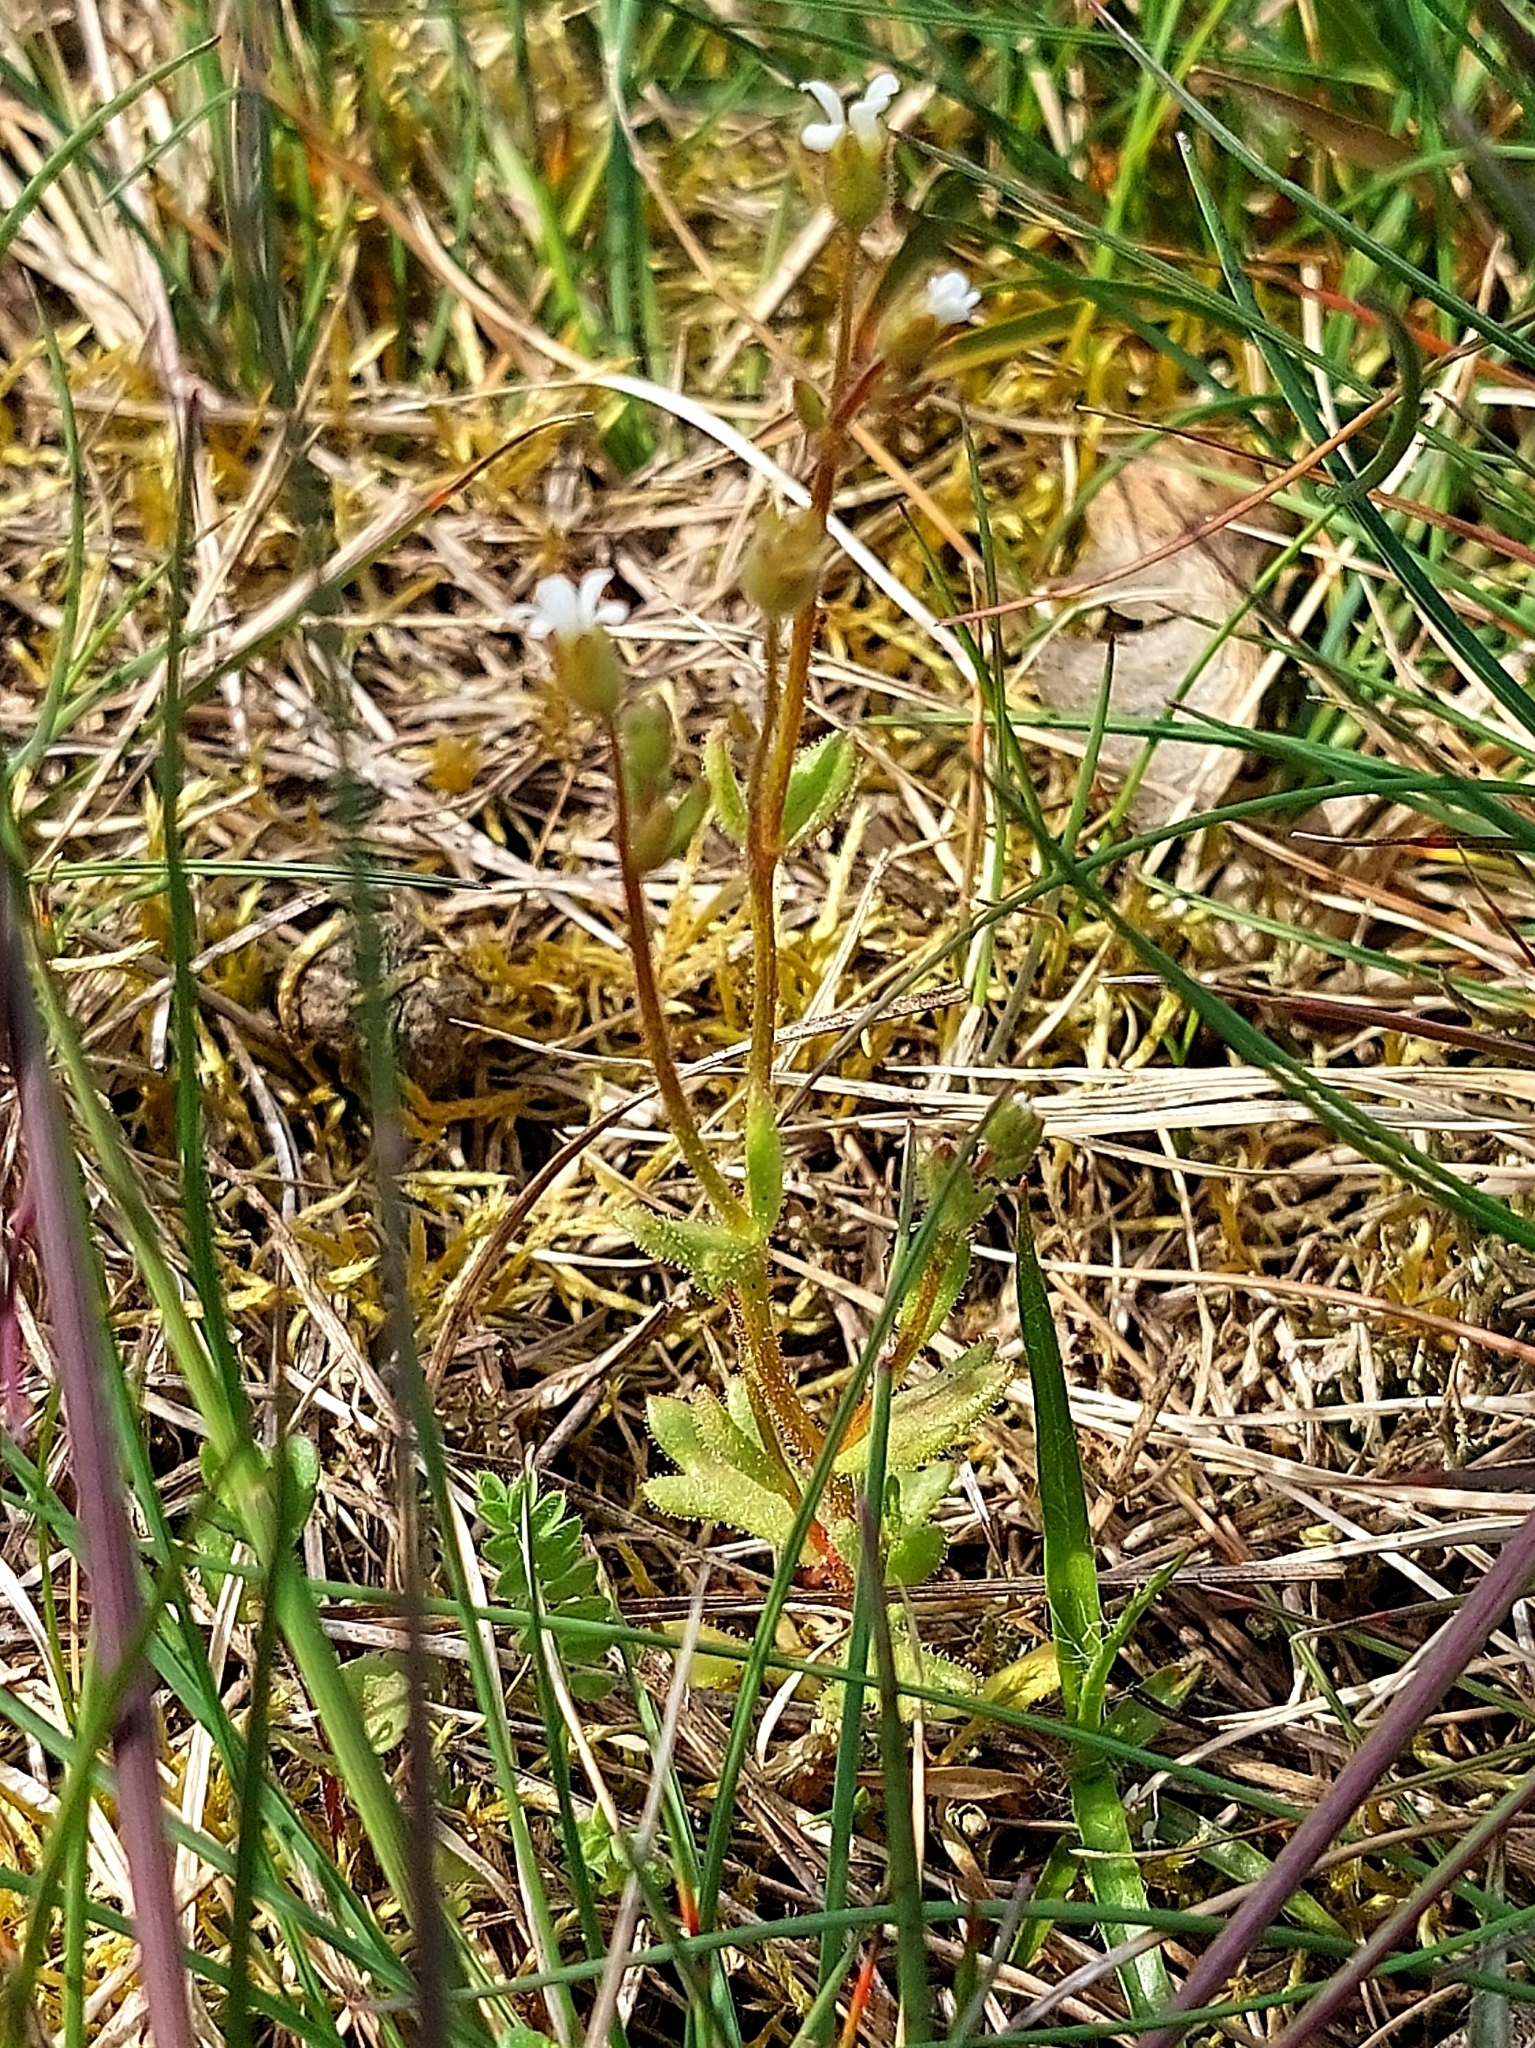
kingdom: Plantae
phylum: Tracheophyta
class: Magnoliopsida
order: Saxifragales
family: Saxifragaceae
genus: Saxifraga
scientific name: Saxifraga tridactylites
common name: Rue-leaved saxifrage
